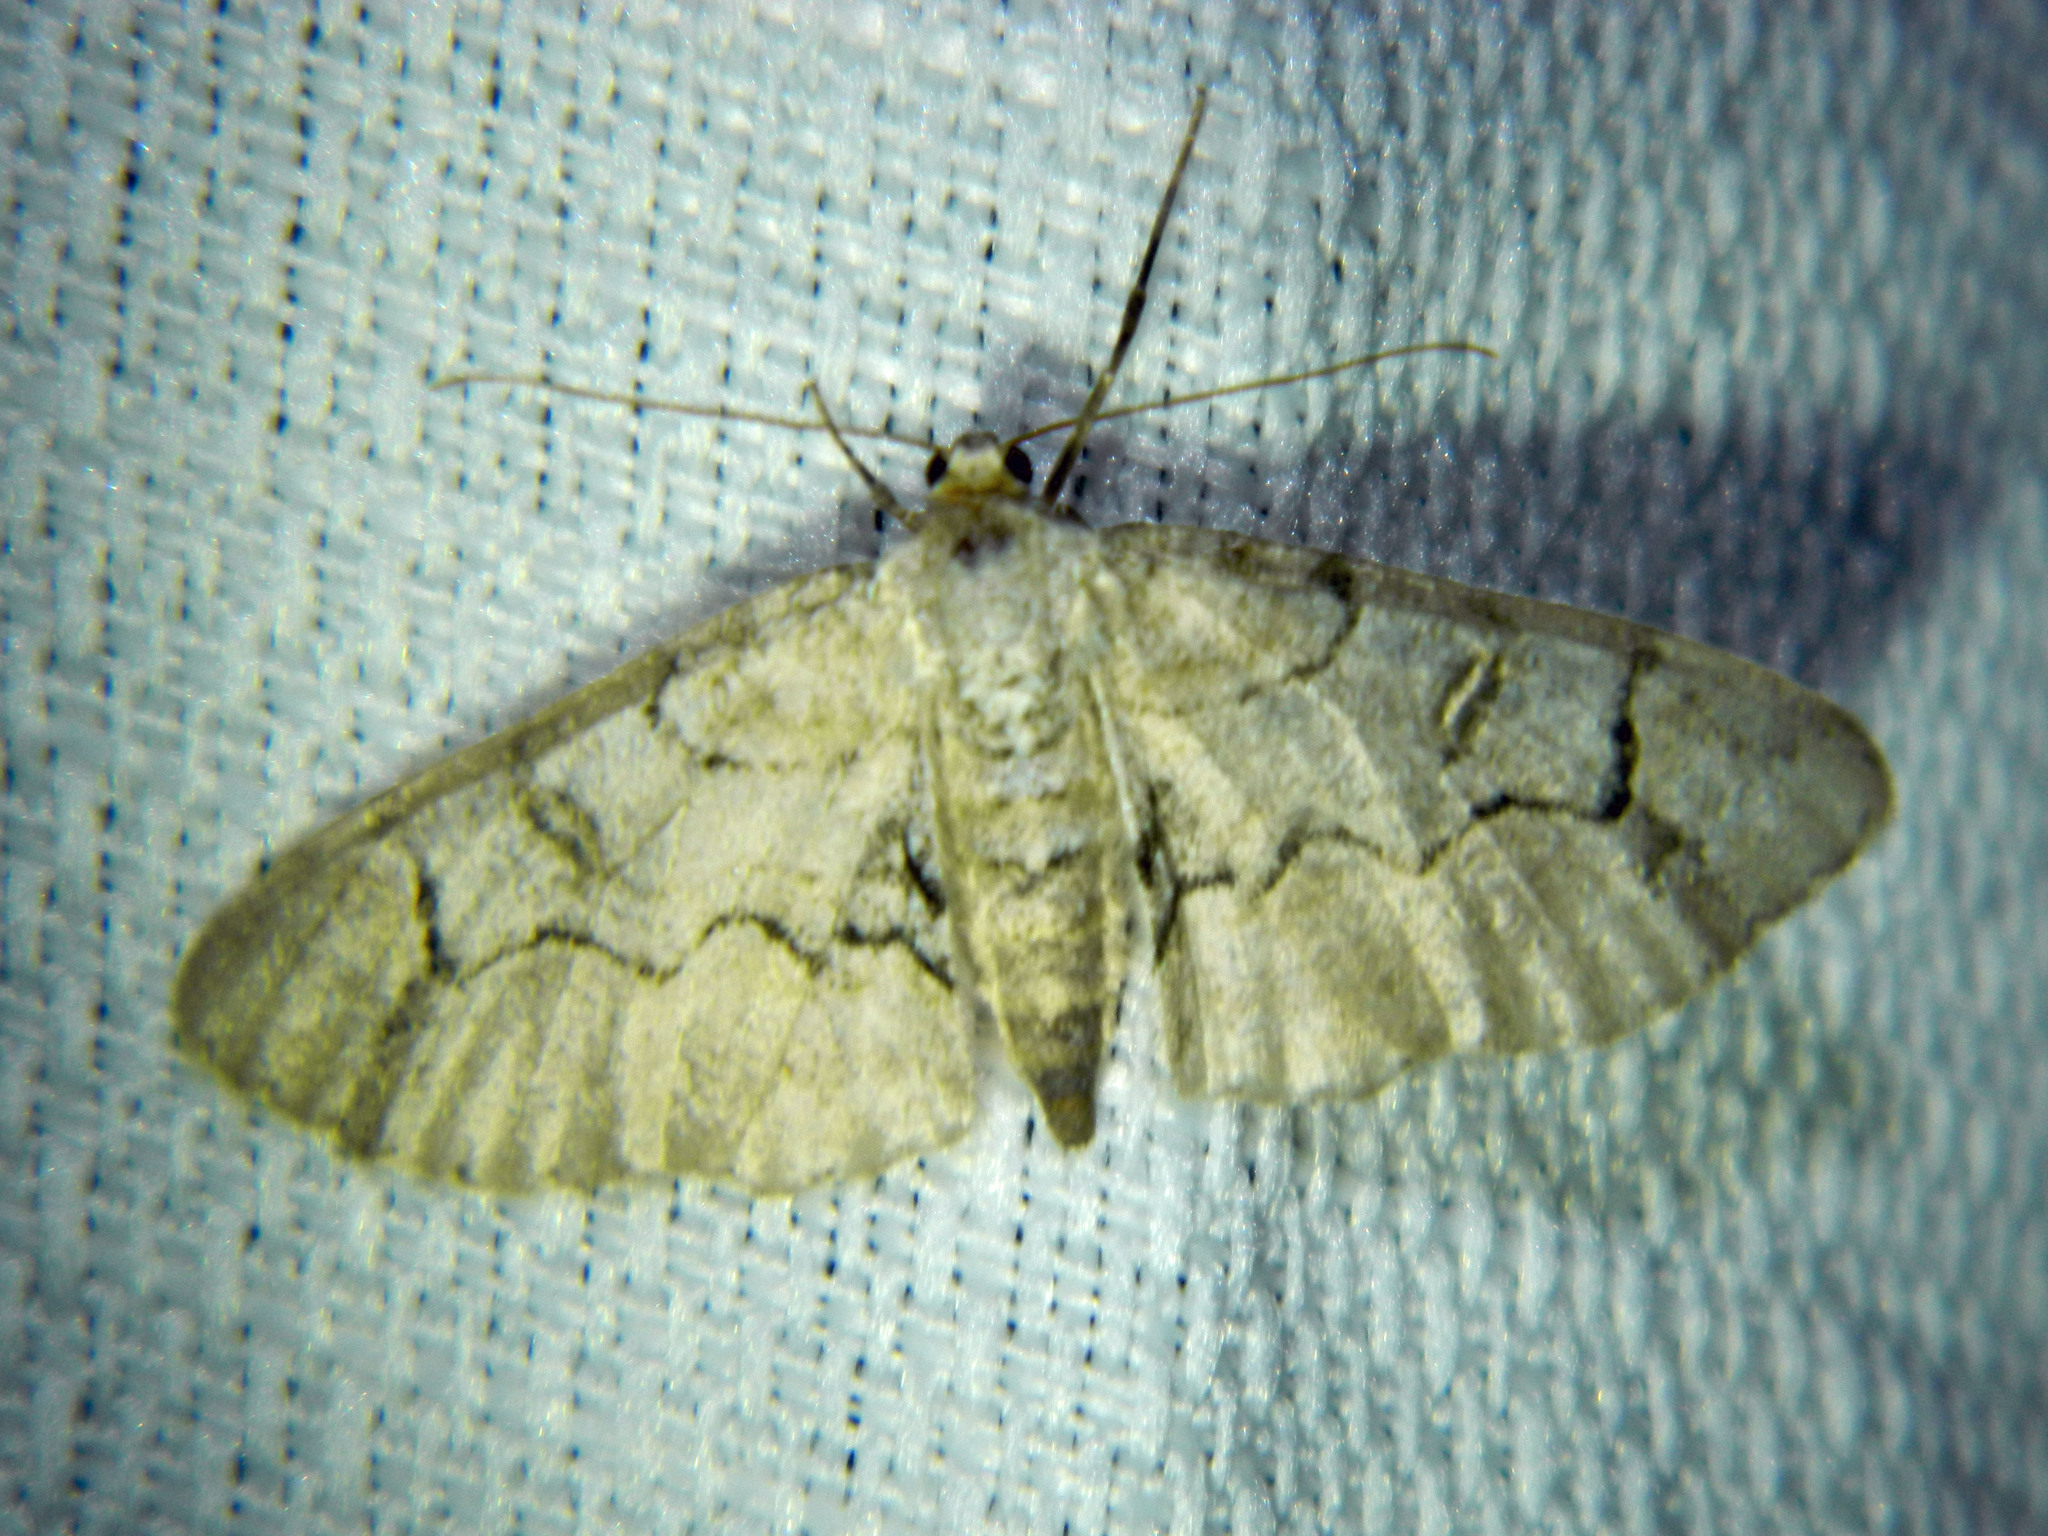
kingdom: Animalia
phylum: Arthropoda
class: Insecta
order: Lepidoptera
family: Geometridae
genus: Iridopsis
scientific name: Iridopsis larvaria
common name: Bent-line gray
